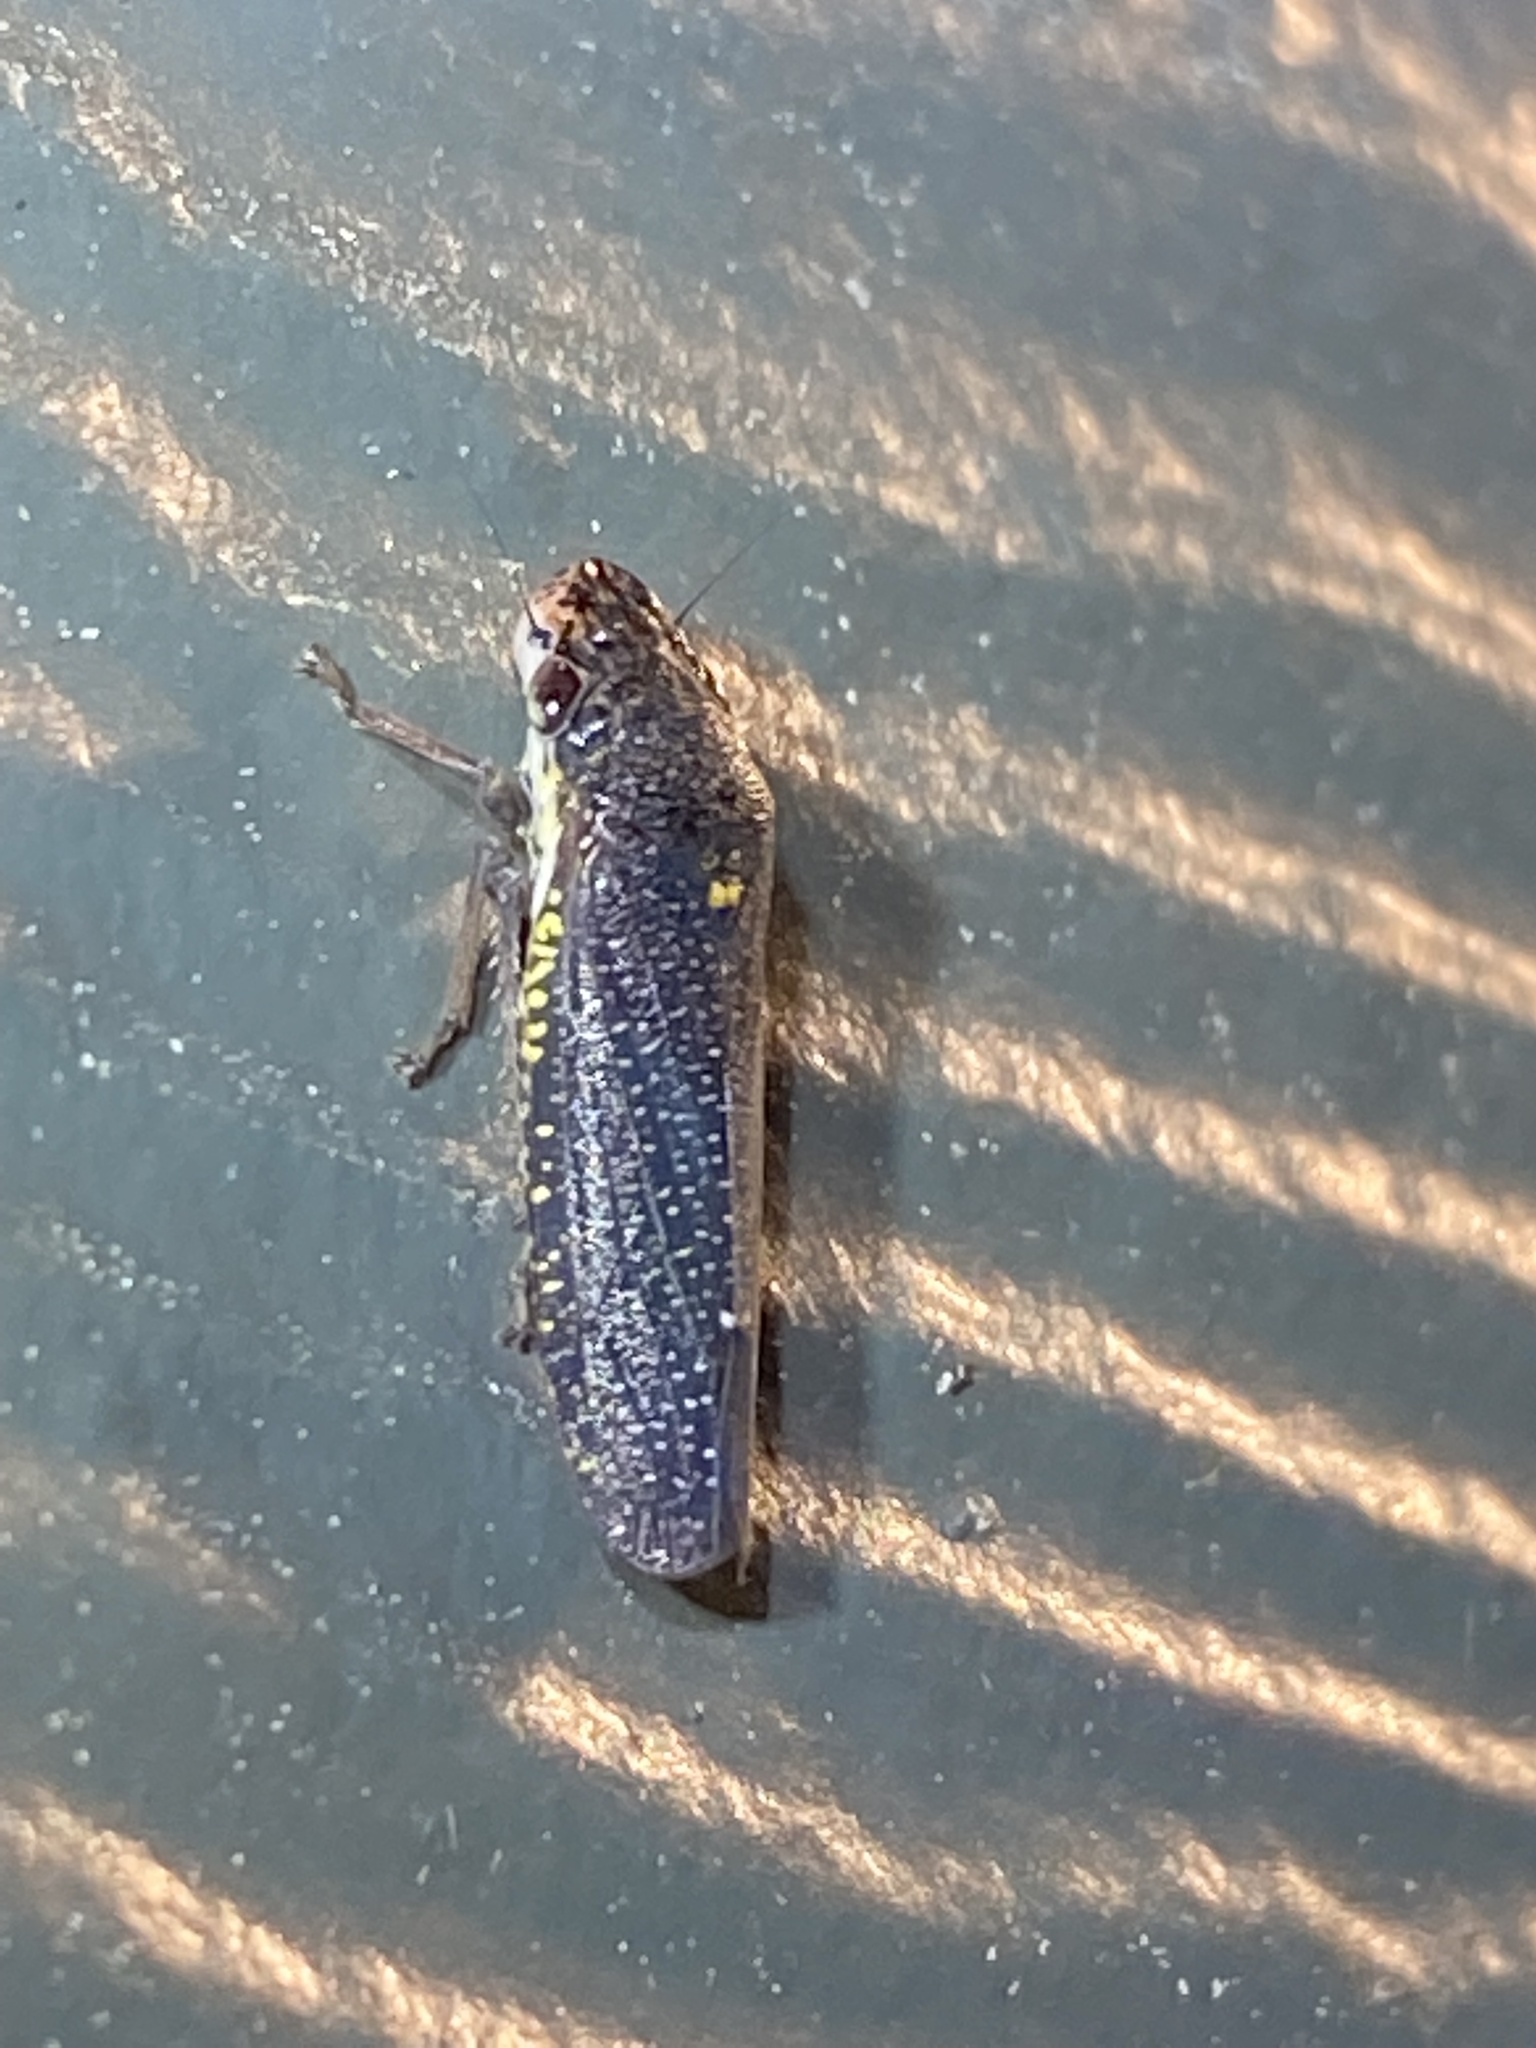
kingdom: Animalia
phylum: Arthropoda
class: Insecta
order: Hemiptera
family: Cicadellidae
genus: Paraulacizes
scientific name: Paraulacizes irrorata
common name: Speckled sharpshooter
